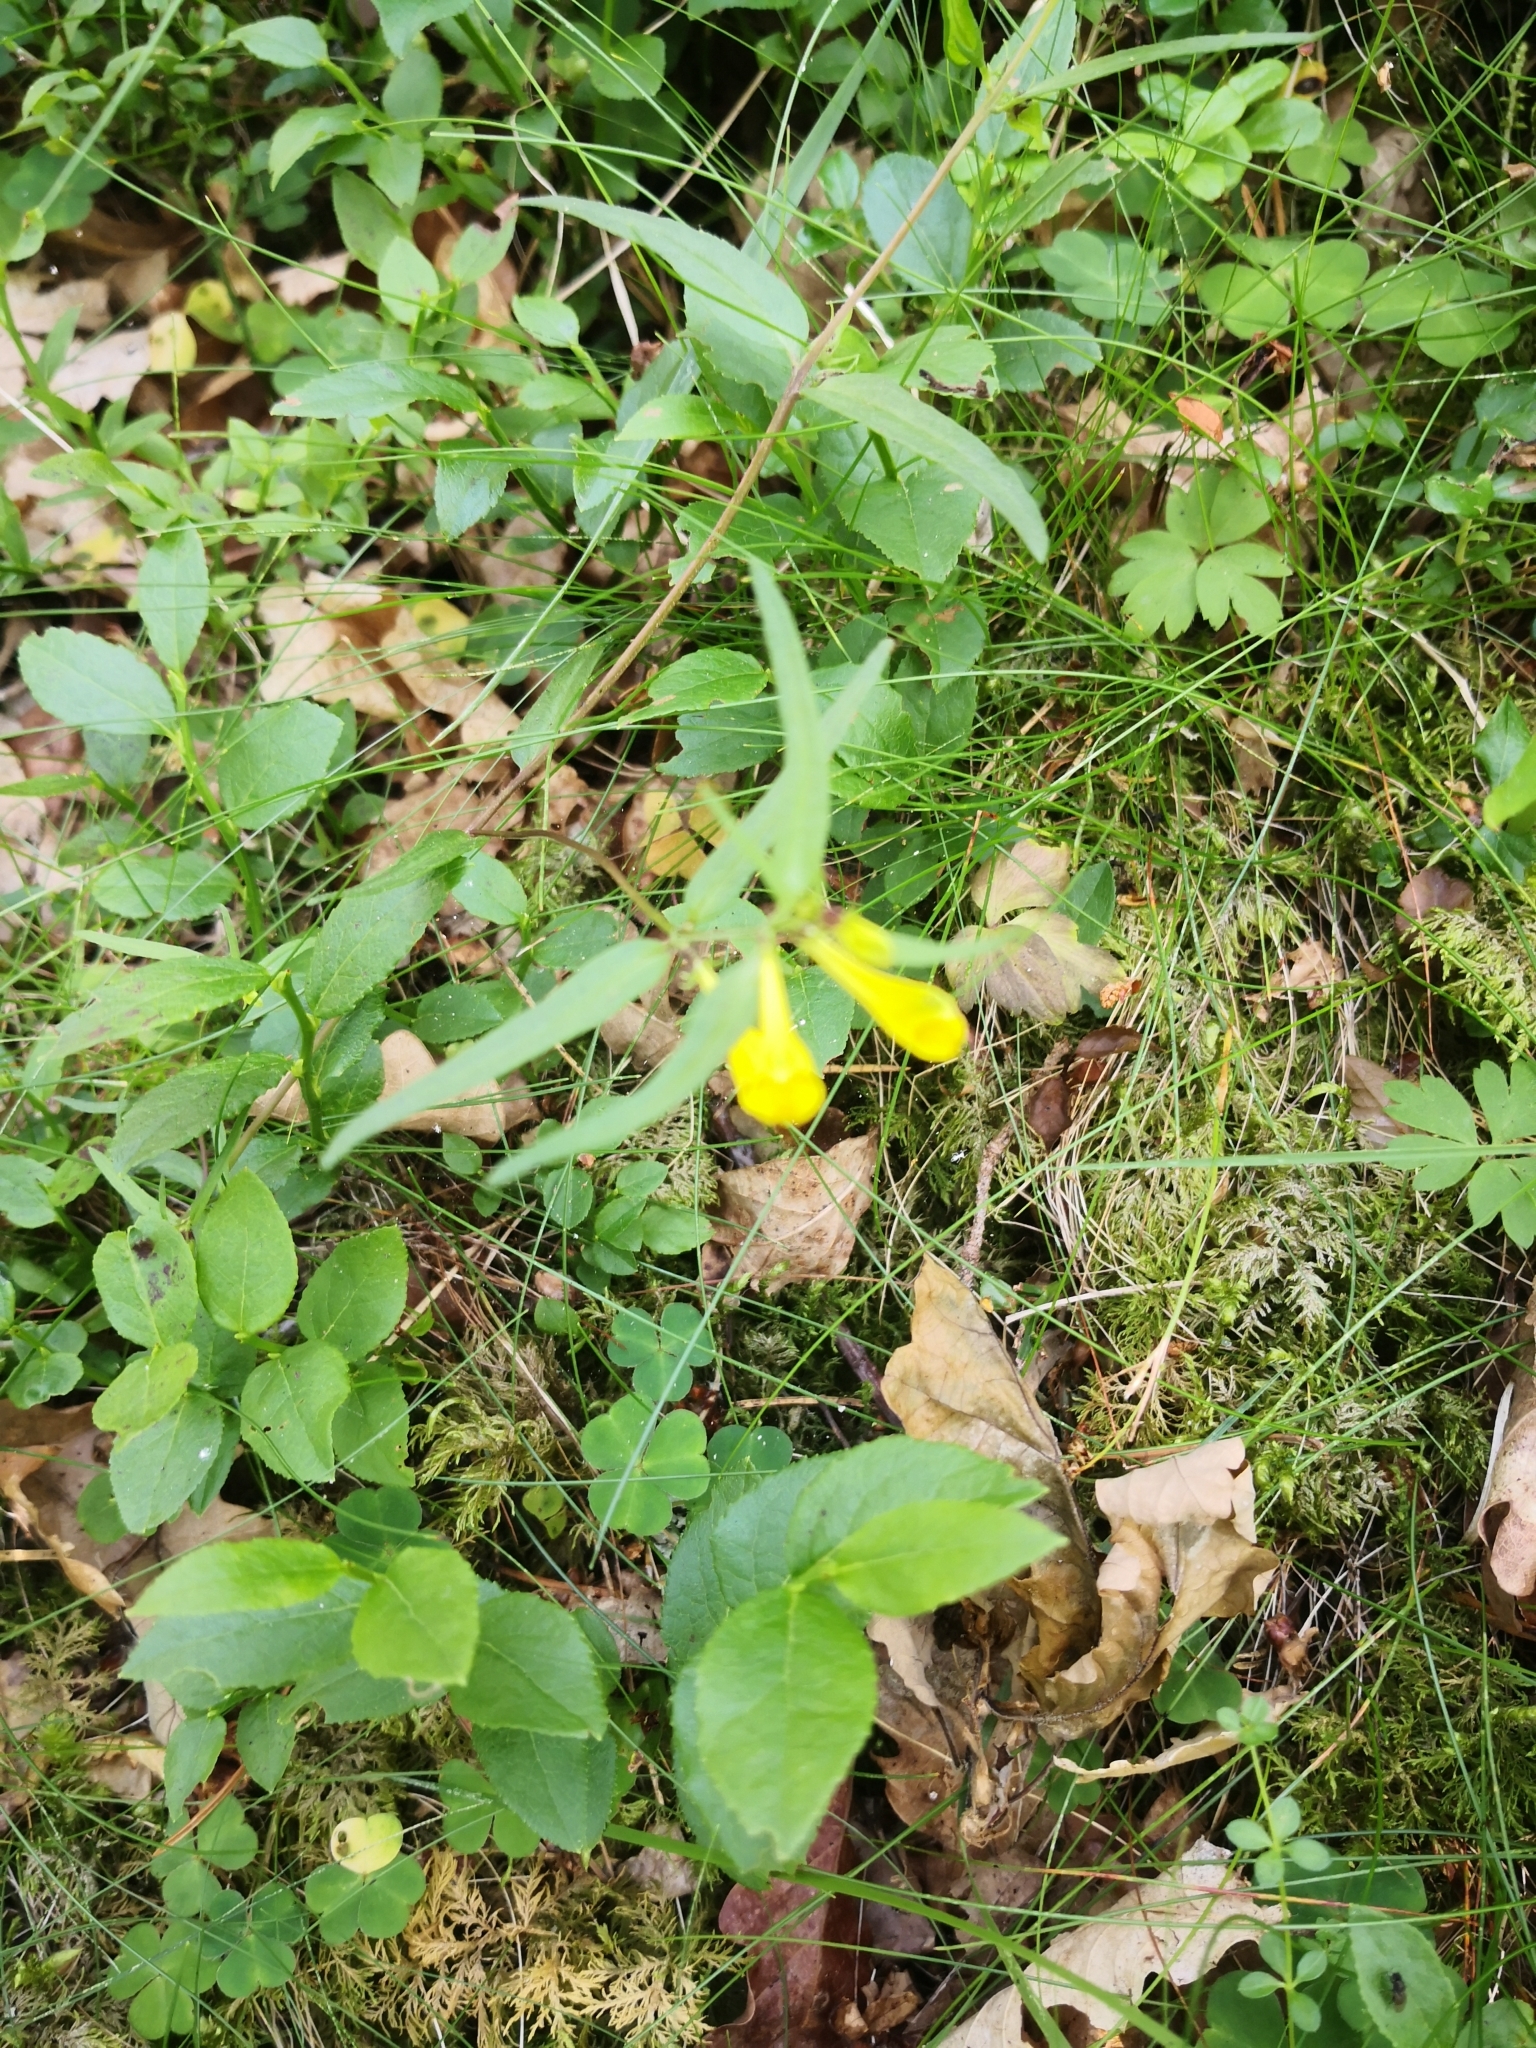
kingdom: Plantae
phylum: Tracheophyta
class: Magnoliopsida
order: Lamiales
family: Orobanchaceae
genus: Melampyrum
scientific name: Melampyrum pratense
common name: Common cow-wheat
